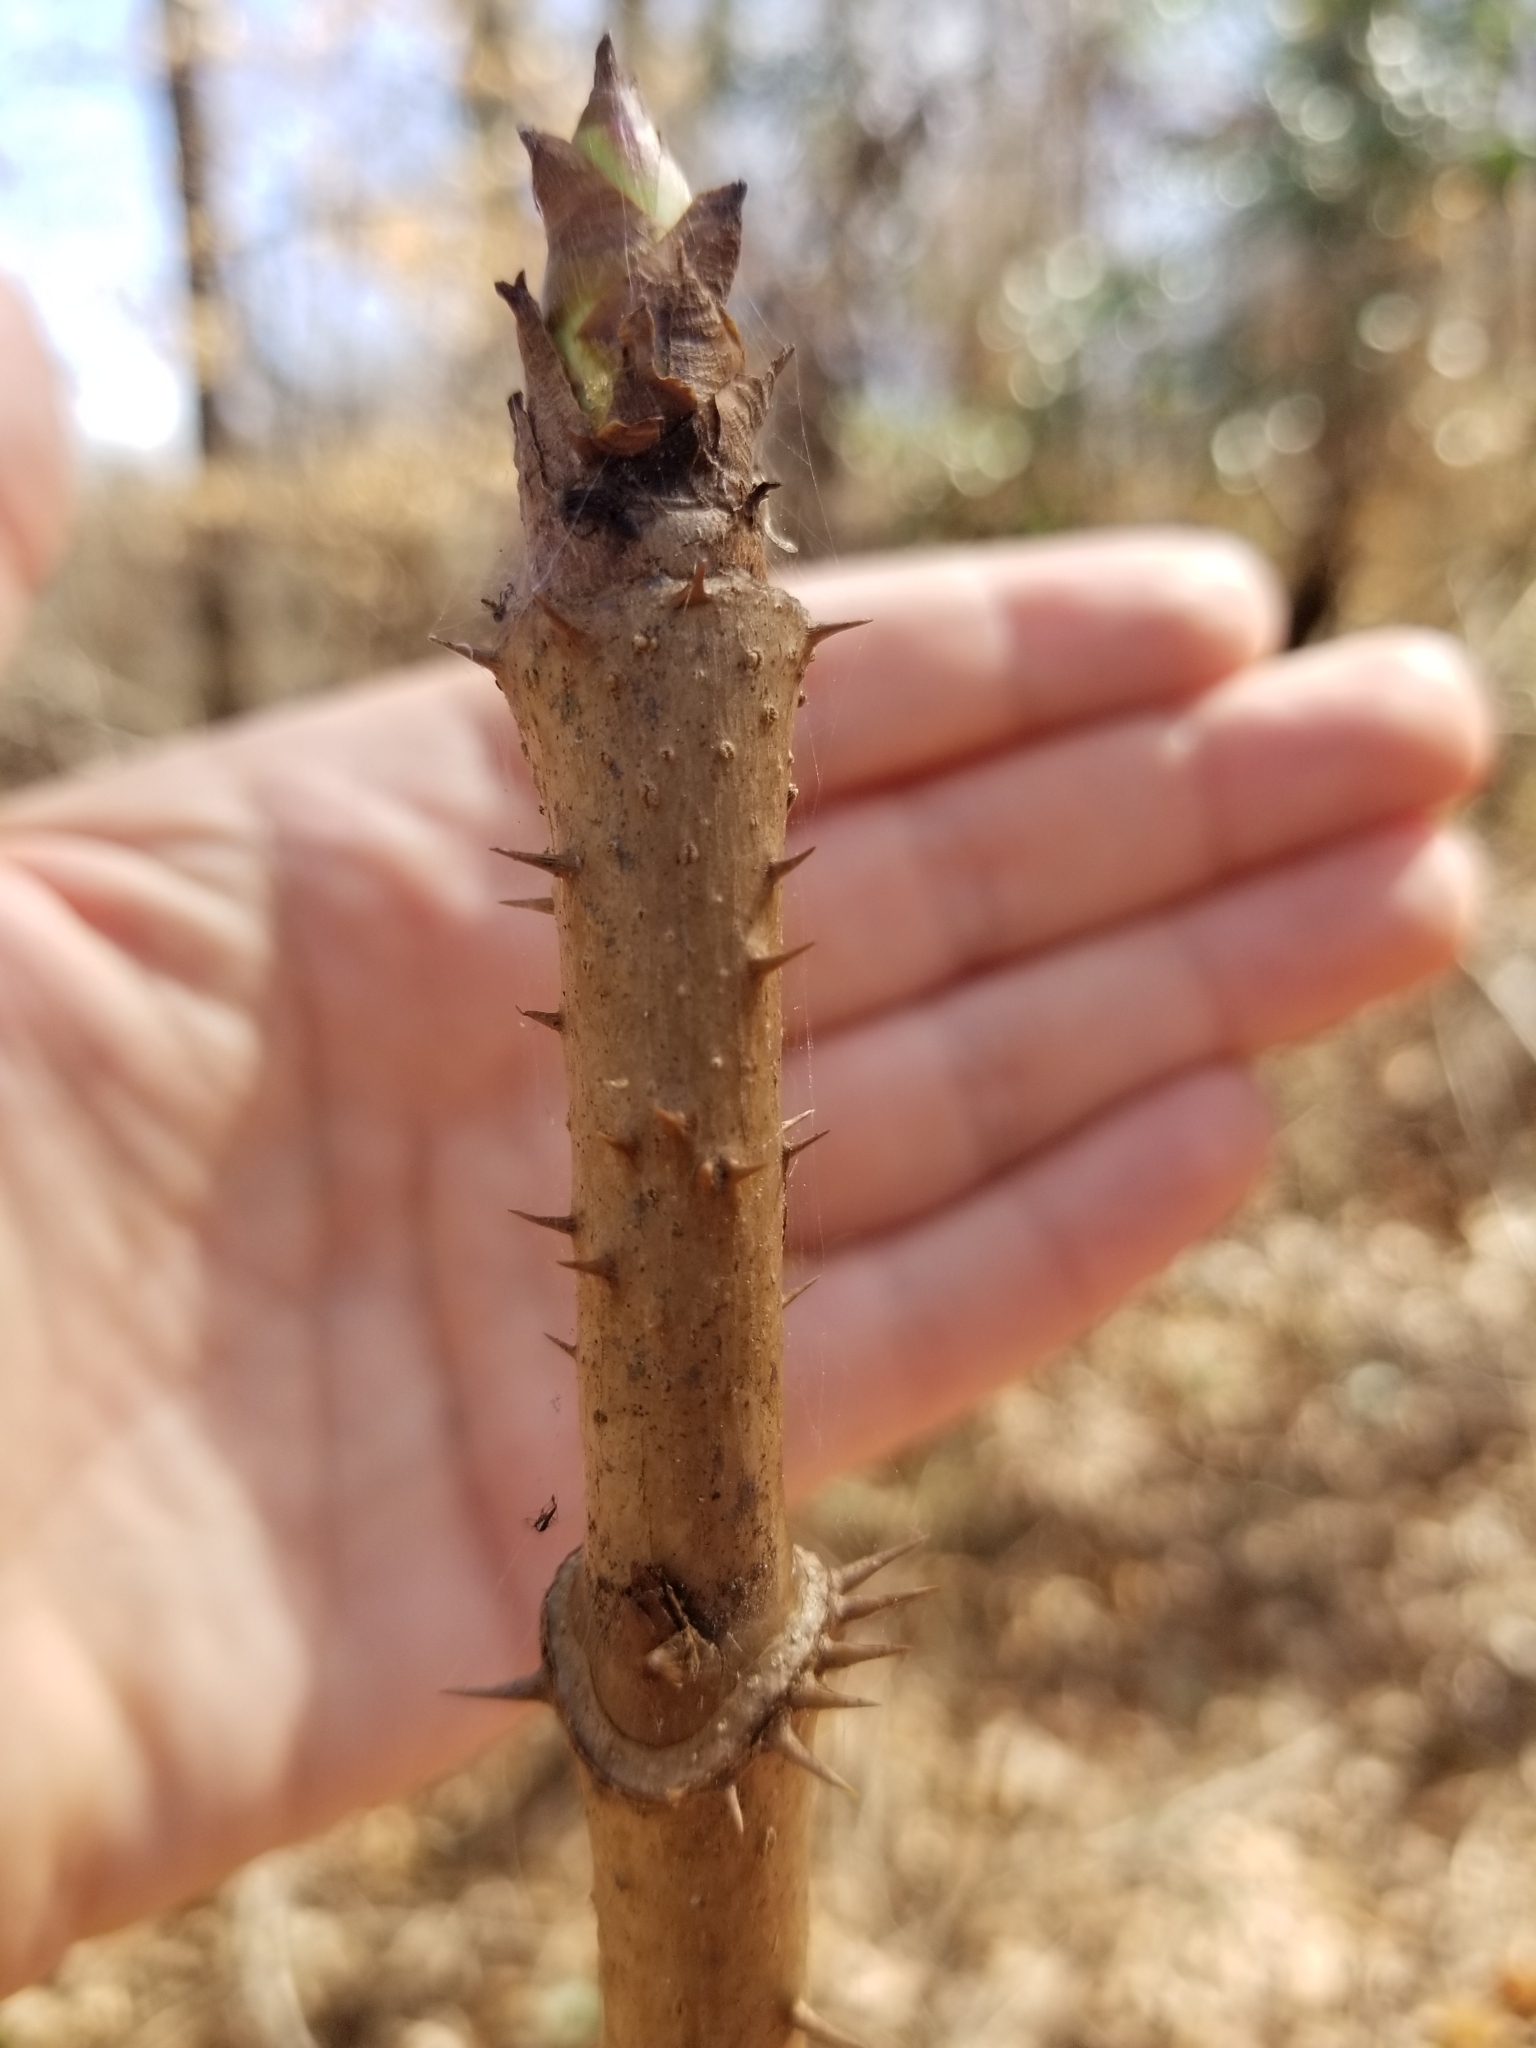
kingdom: Plantae
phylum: Tracheophyta
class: Magnoliopsida
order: Apiales
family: Araliaceae
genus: Aralia
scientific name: Aralia spinosa
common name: Hercules'-club
